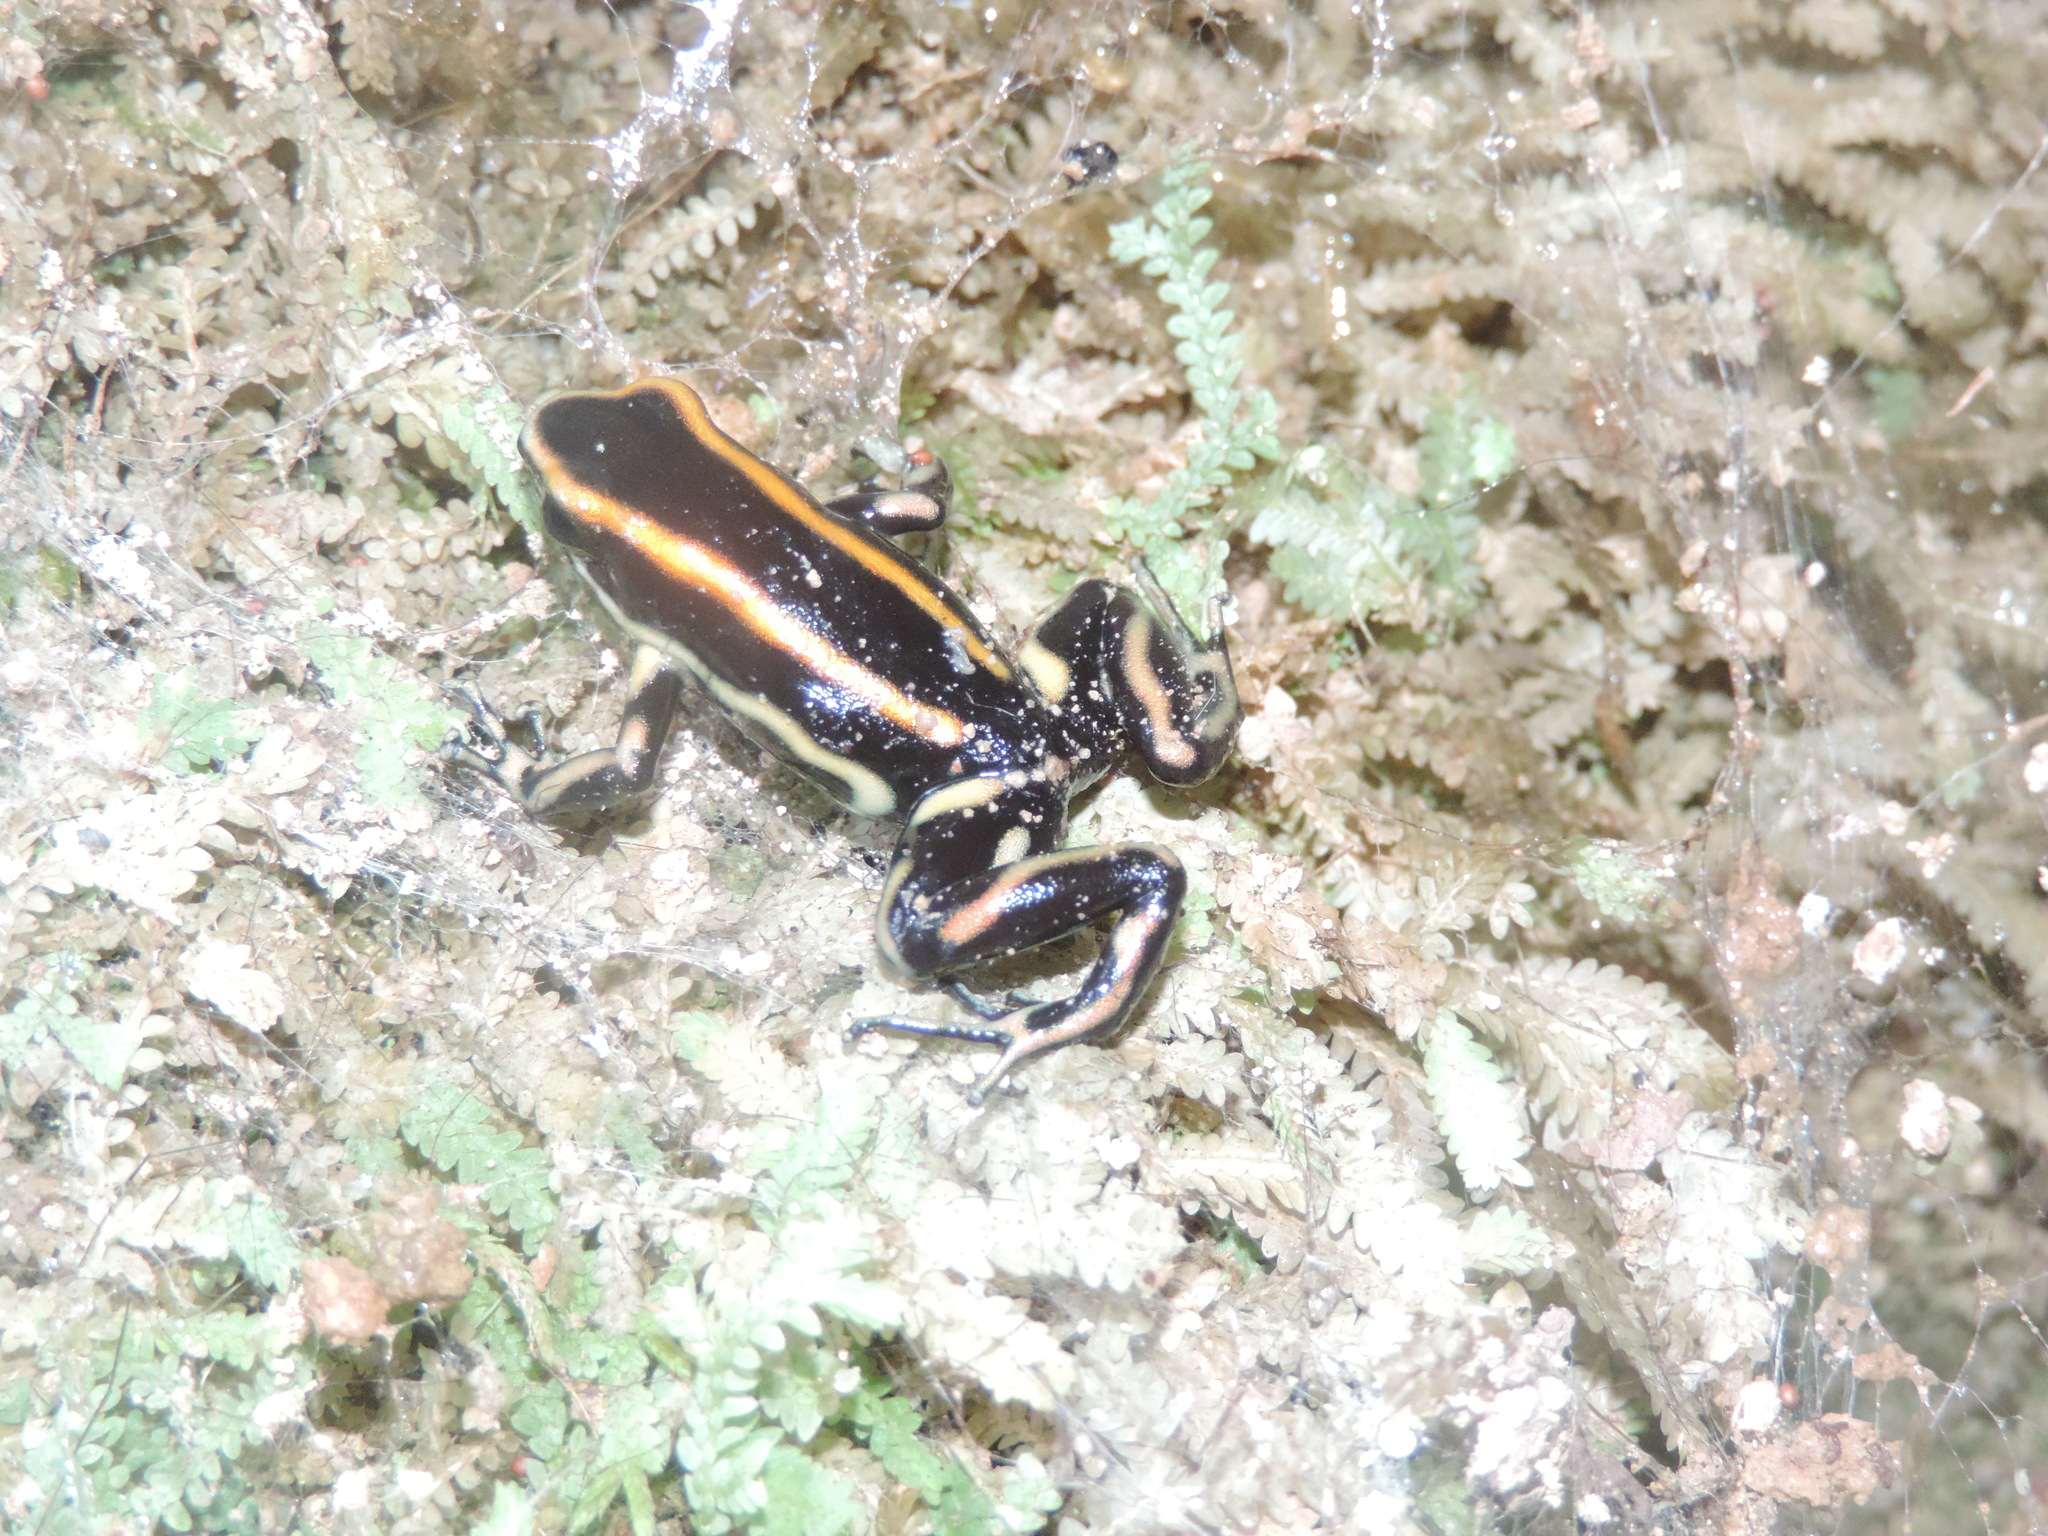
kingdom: Animalia
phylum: Chordata
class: Amphibia
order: Anura
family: Dendrobatidae
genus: Dendrobates
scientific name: Dendrobates truncatus
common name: Yellow-striped poison frog
